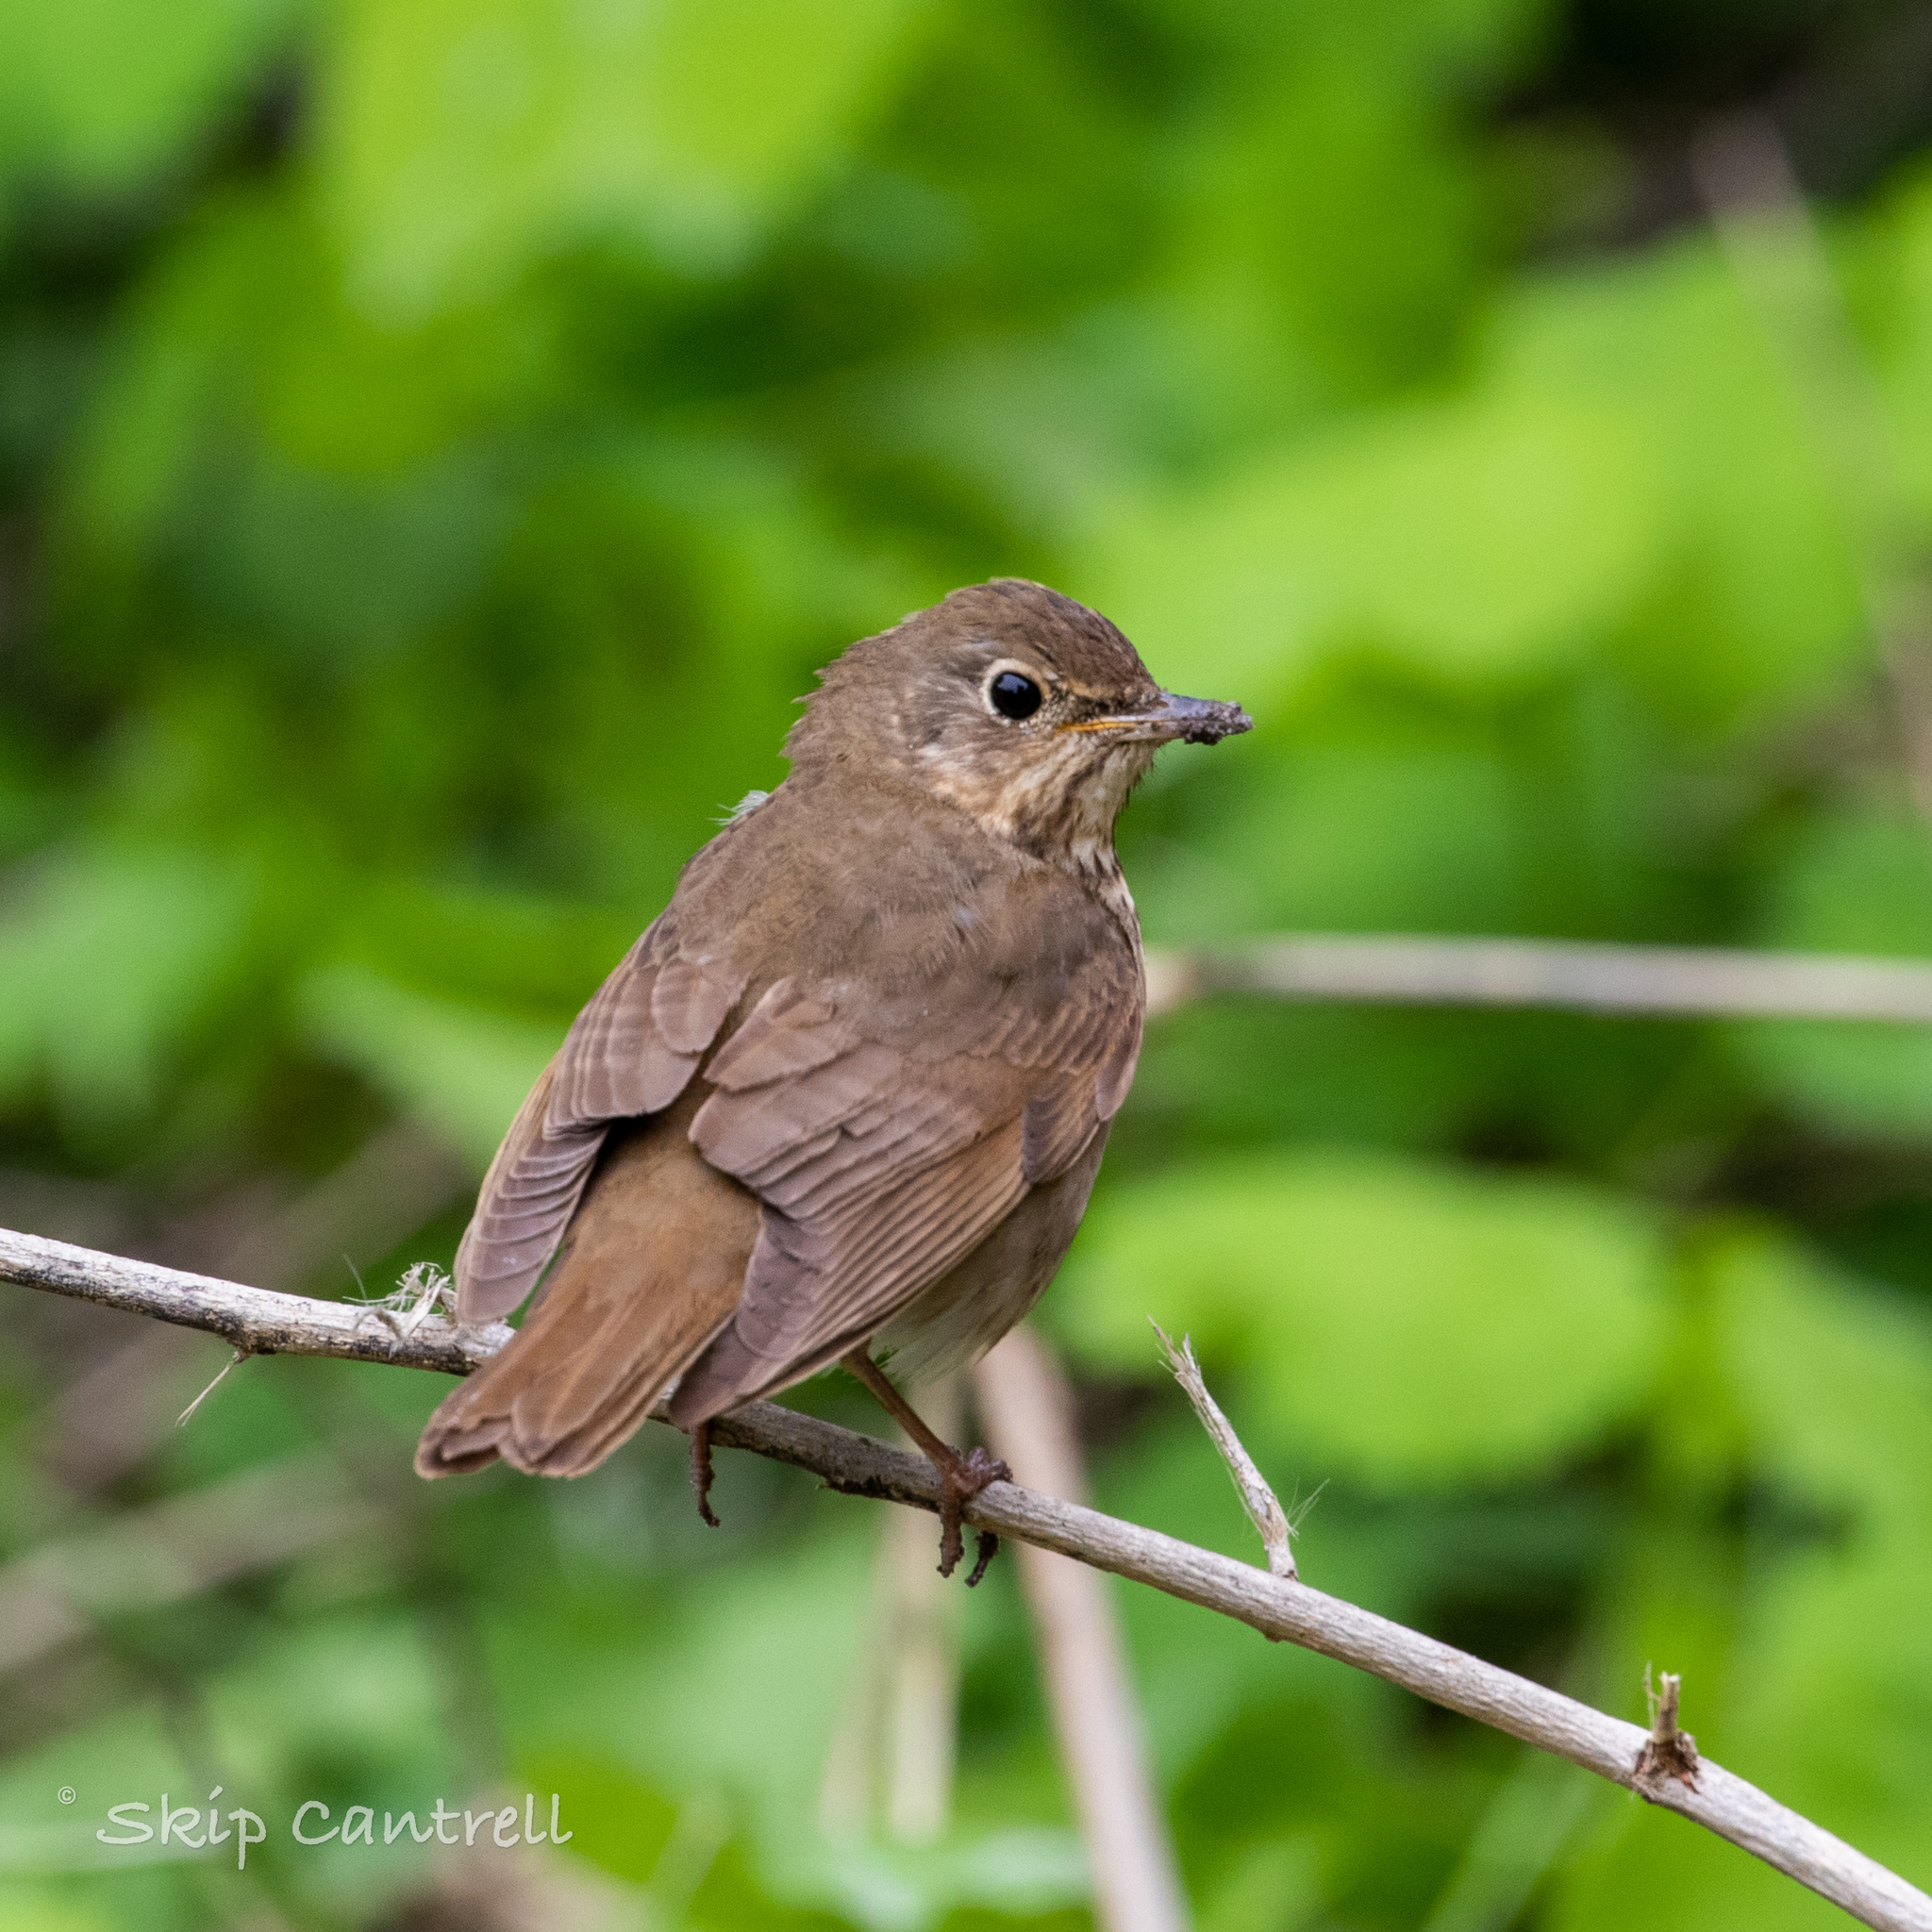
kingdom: Animalia
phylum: Chordata
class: Aves
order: Passeriformes
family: Turdidae
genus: Catharus
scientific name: Catharus ustulatus
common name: Swainson's thrush
